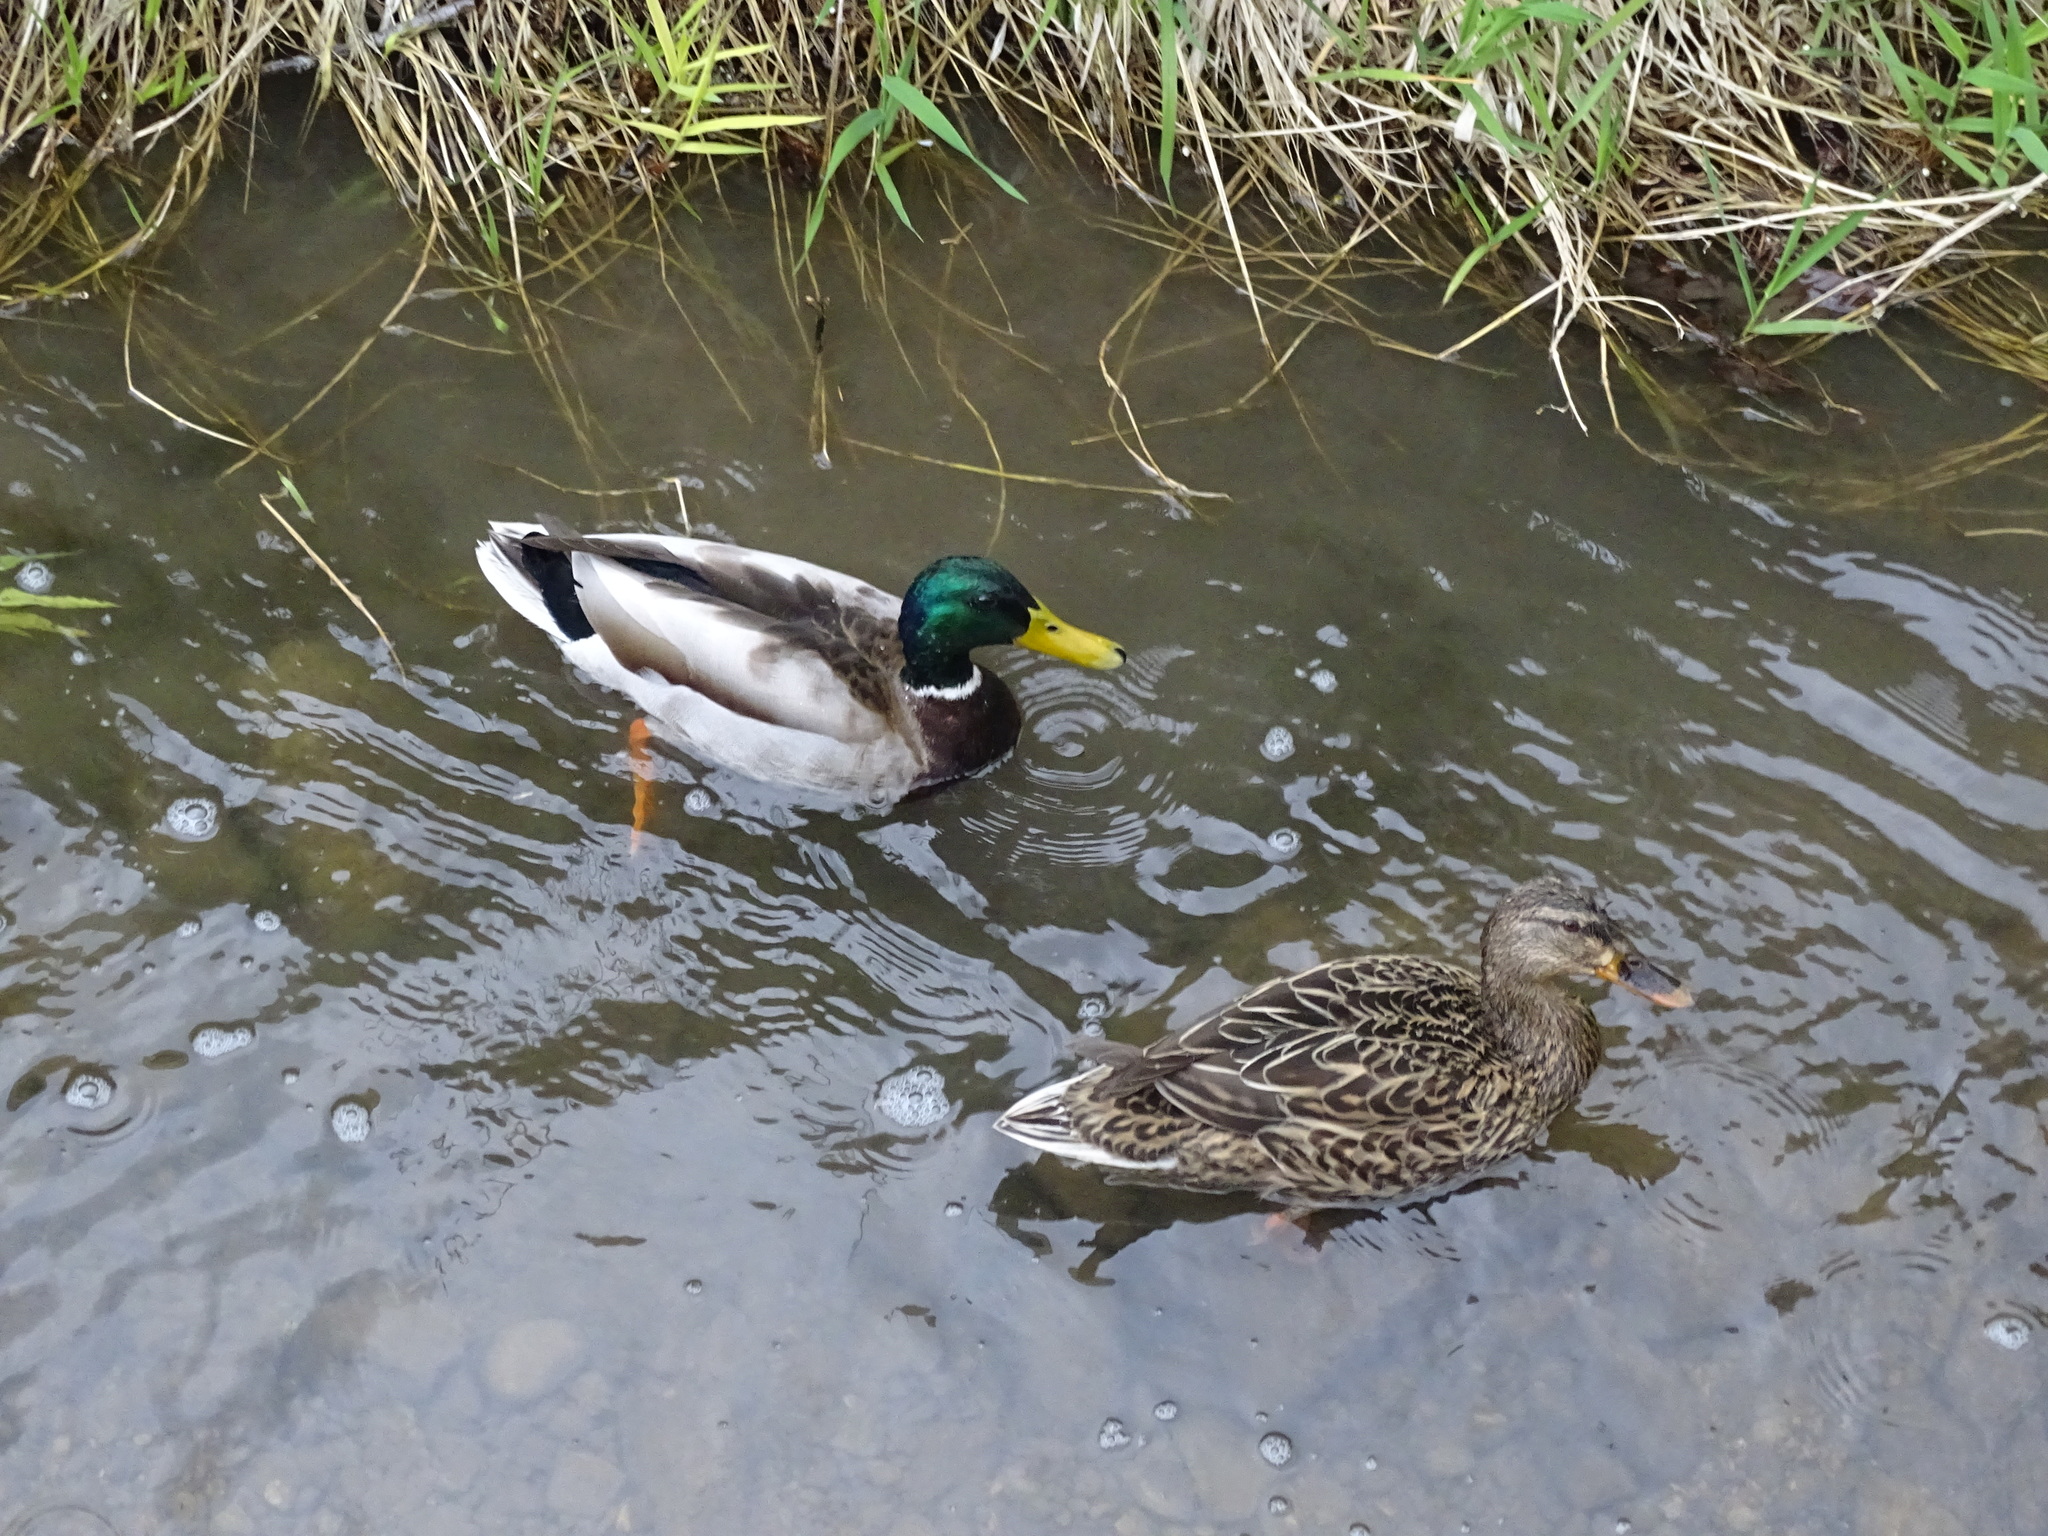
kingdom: Animalia
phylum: Chordata
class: Aves
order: Anseriformes
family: Anatidae
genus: Anas
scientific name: Anas platyrhynchos
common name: Mallard
